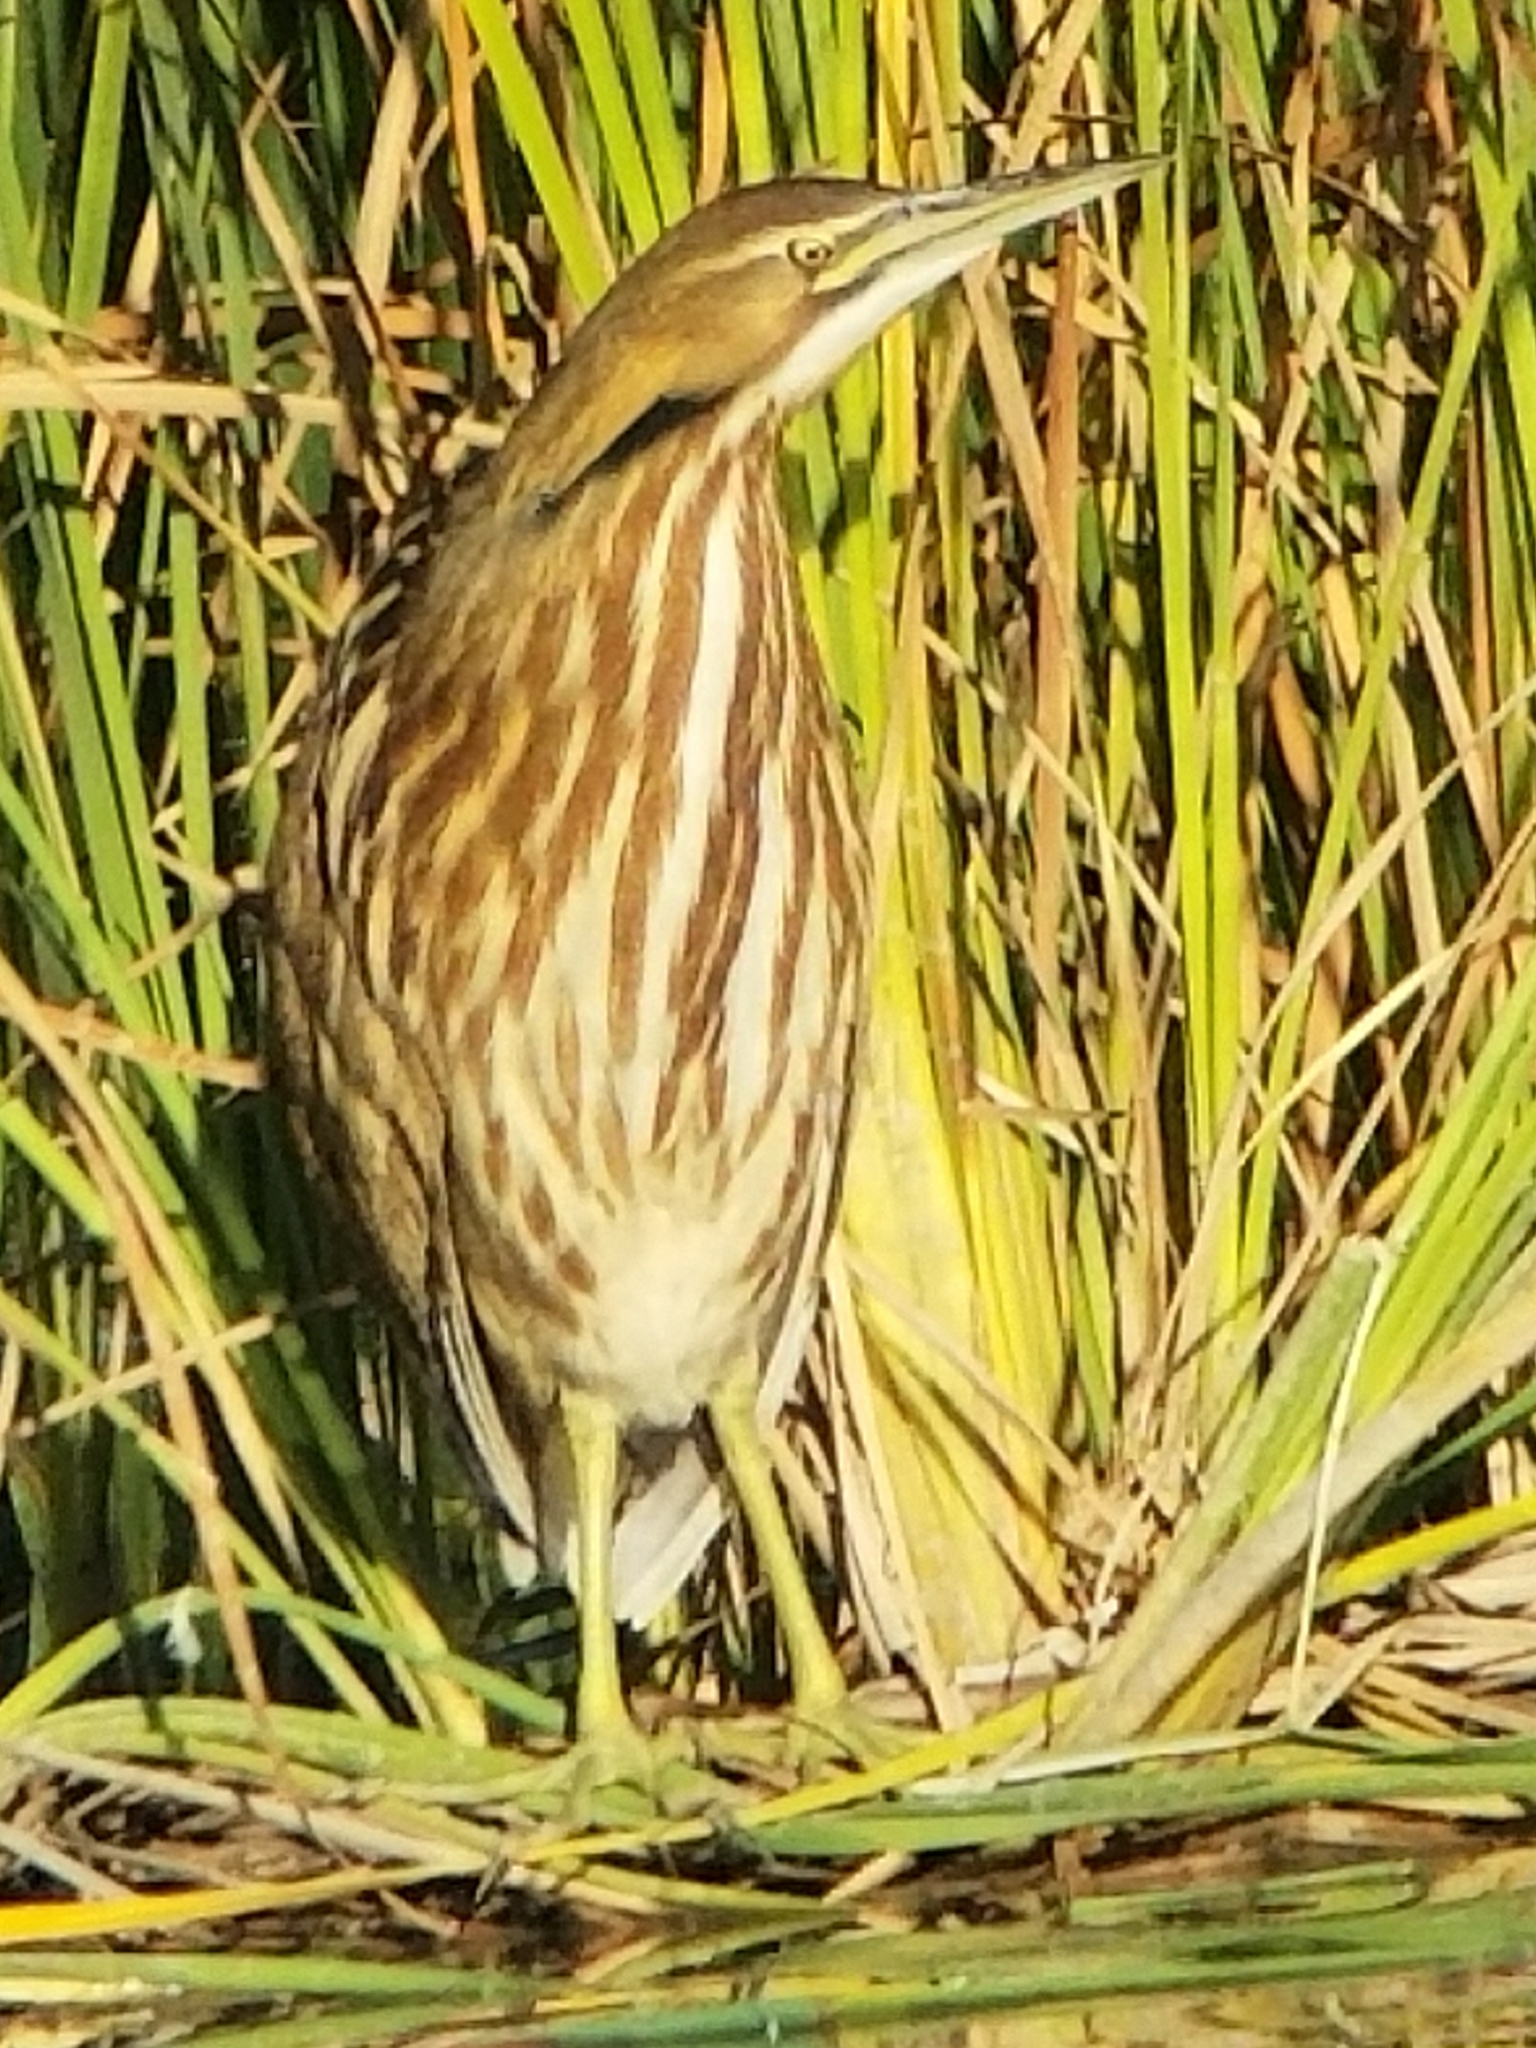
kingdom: Animalia
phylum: Chordata
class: Aves
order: Pelecaniformes
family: Ardeidae
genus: Botaurus
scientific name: Botaurus lentiginosus
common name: American bittern
